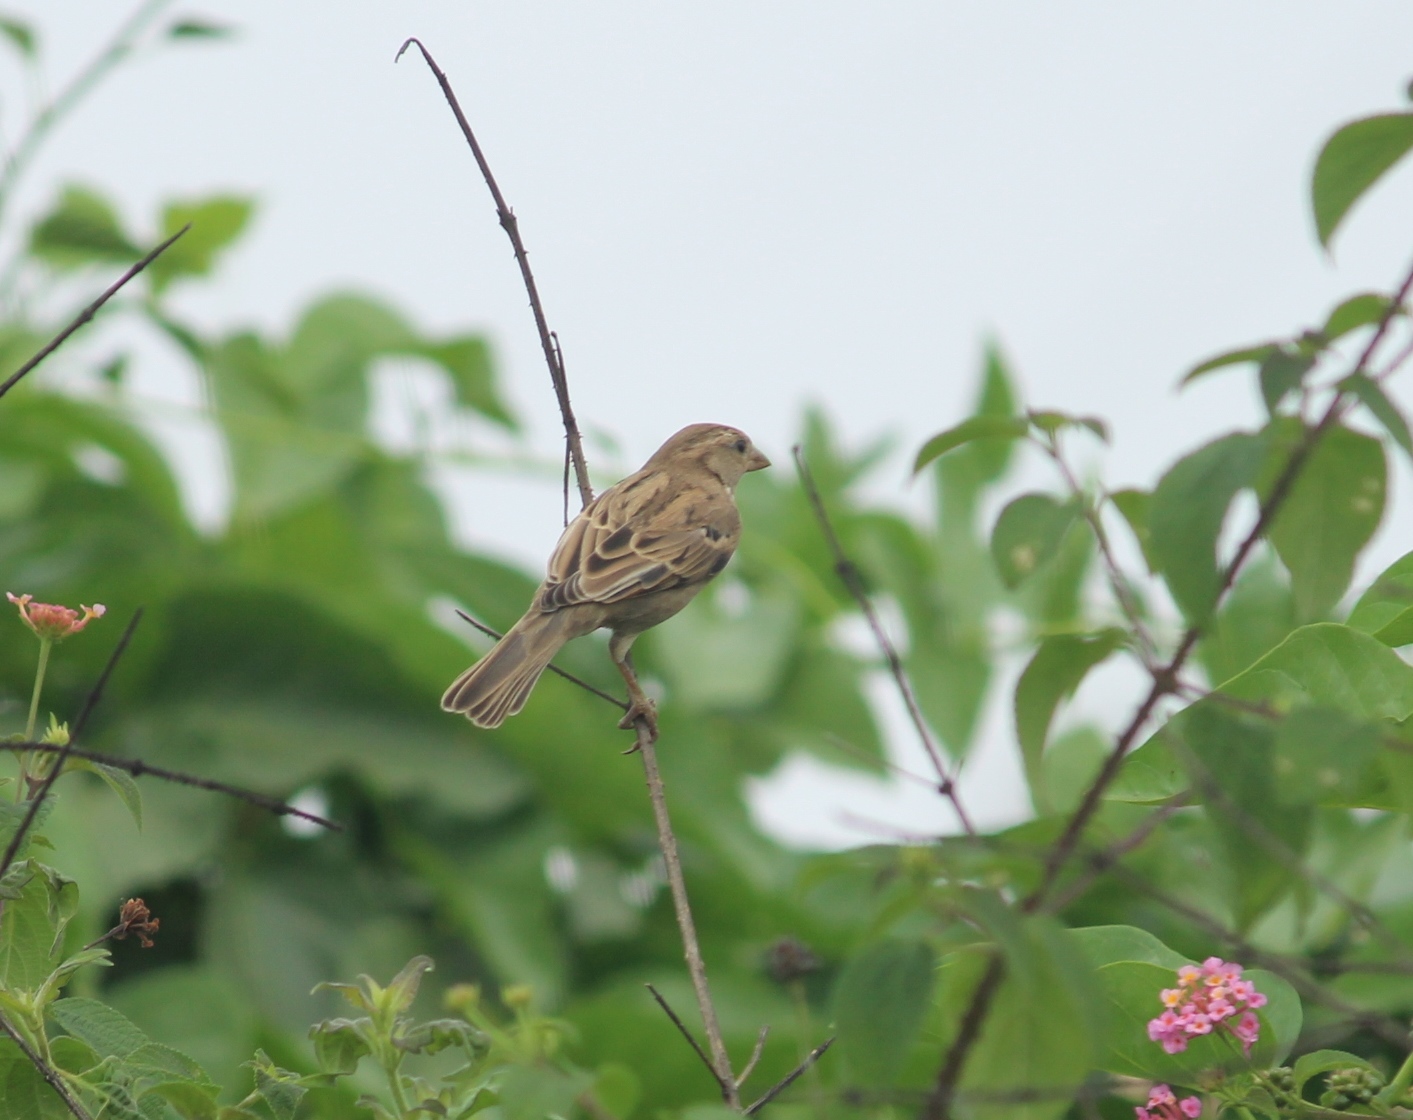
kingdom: Animalia
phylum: Chordata
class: Aves
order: Passeriformes
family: Passeridae
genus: Passer
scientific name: Passer domesticus
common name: House sparrow
